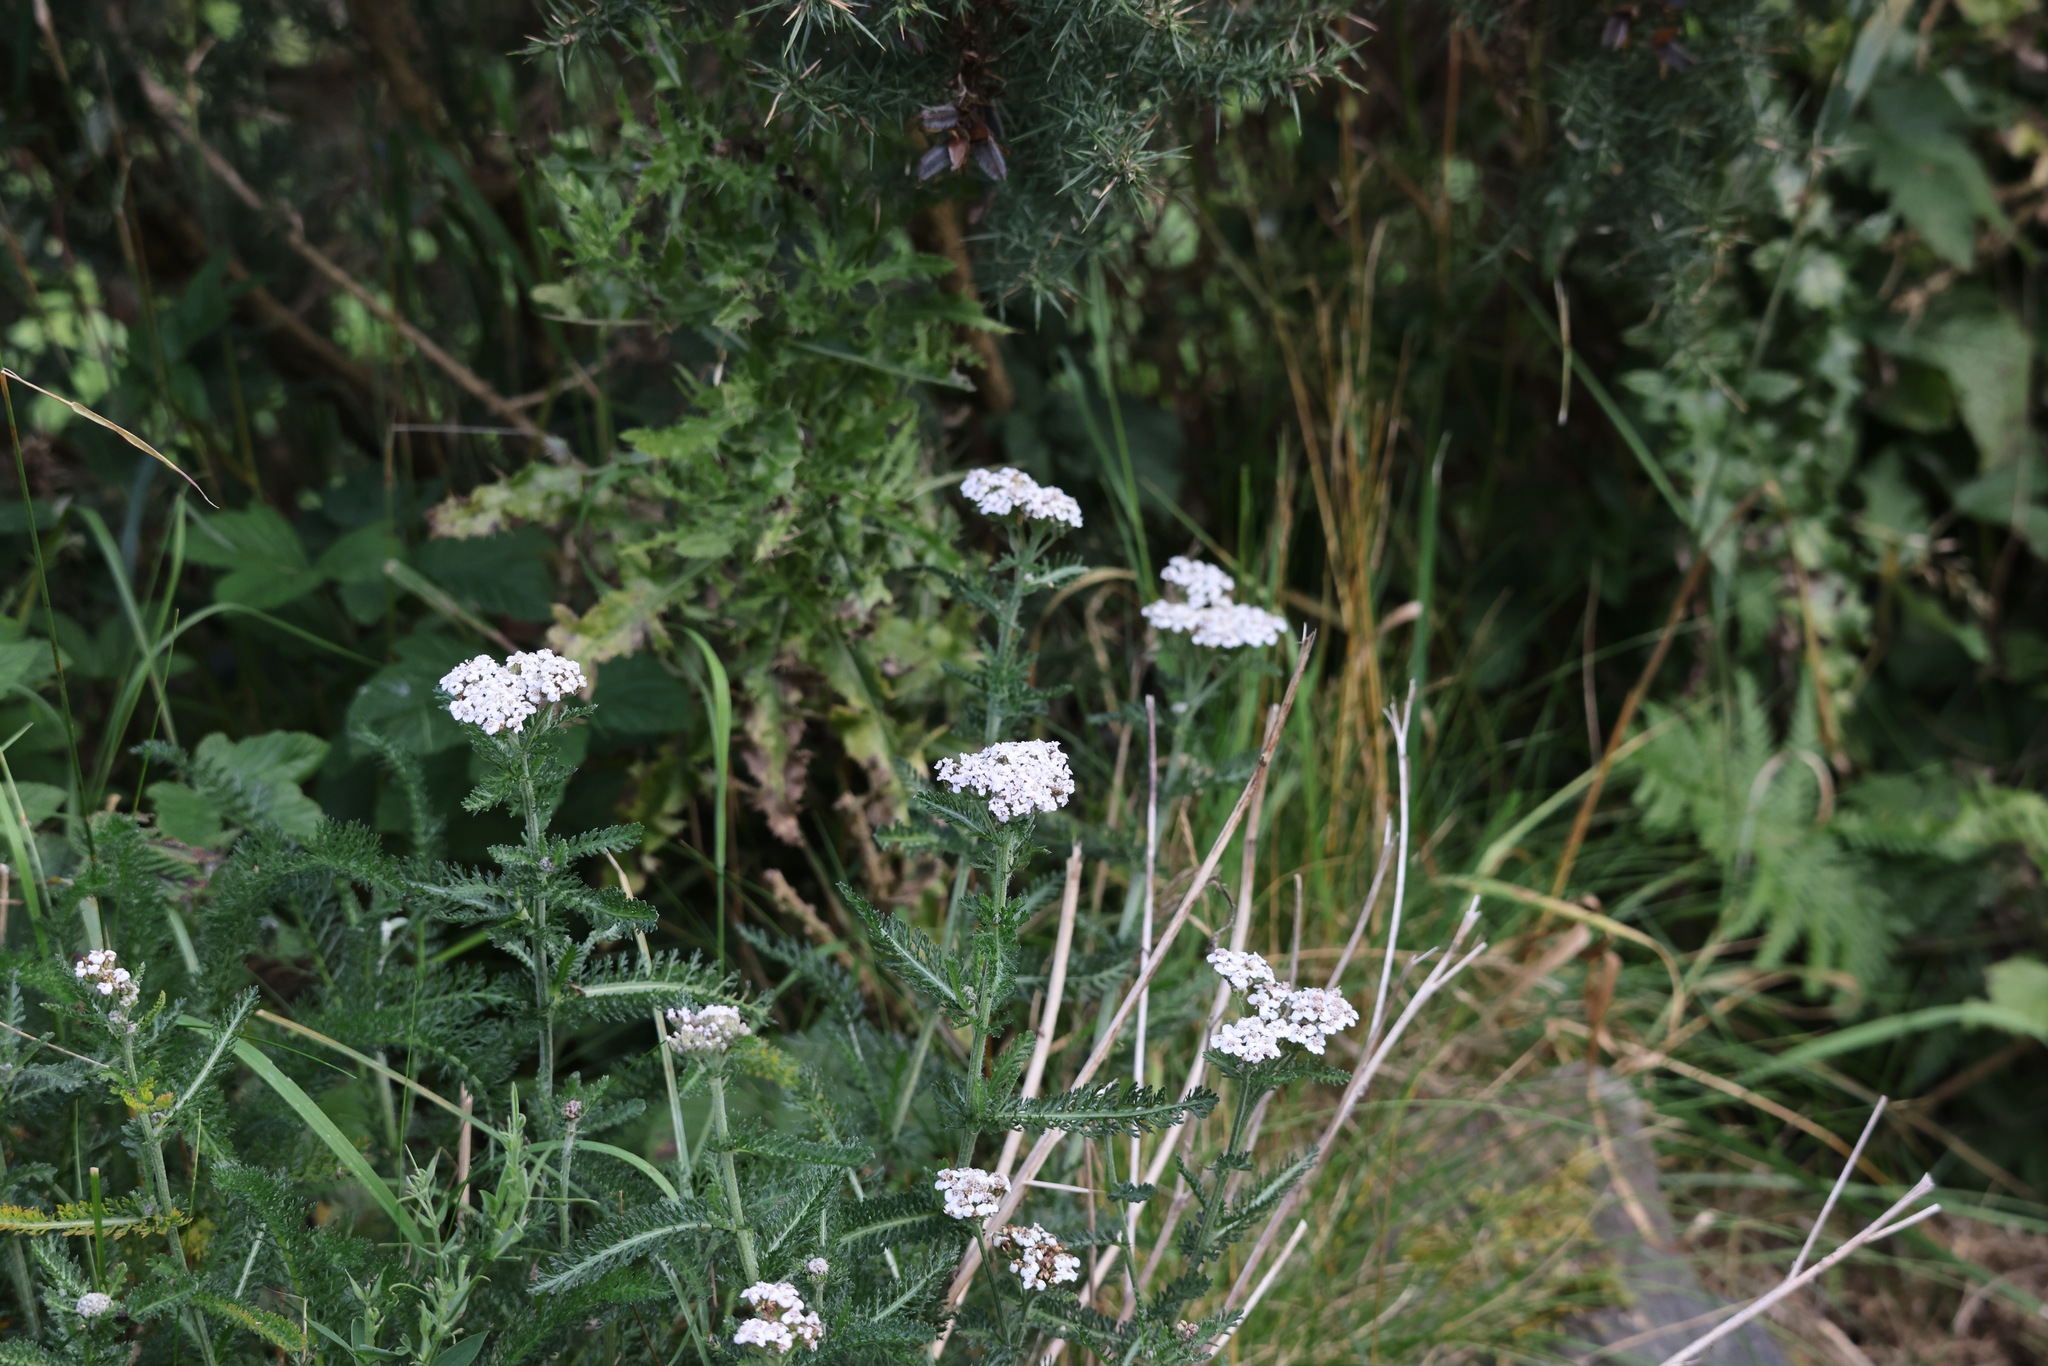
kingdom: Plantae
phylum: Tracheophyta
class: Magnoliopsida
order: Asterales
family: Asteraceae
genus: Achillea
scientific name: Achillea millefolium
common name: Yarrow
